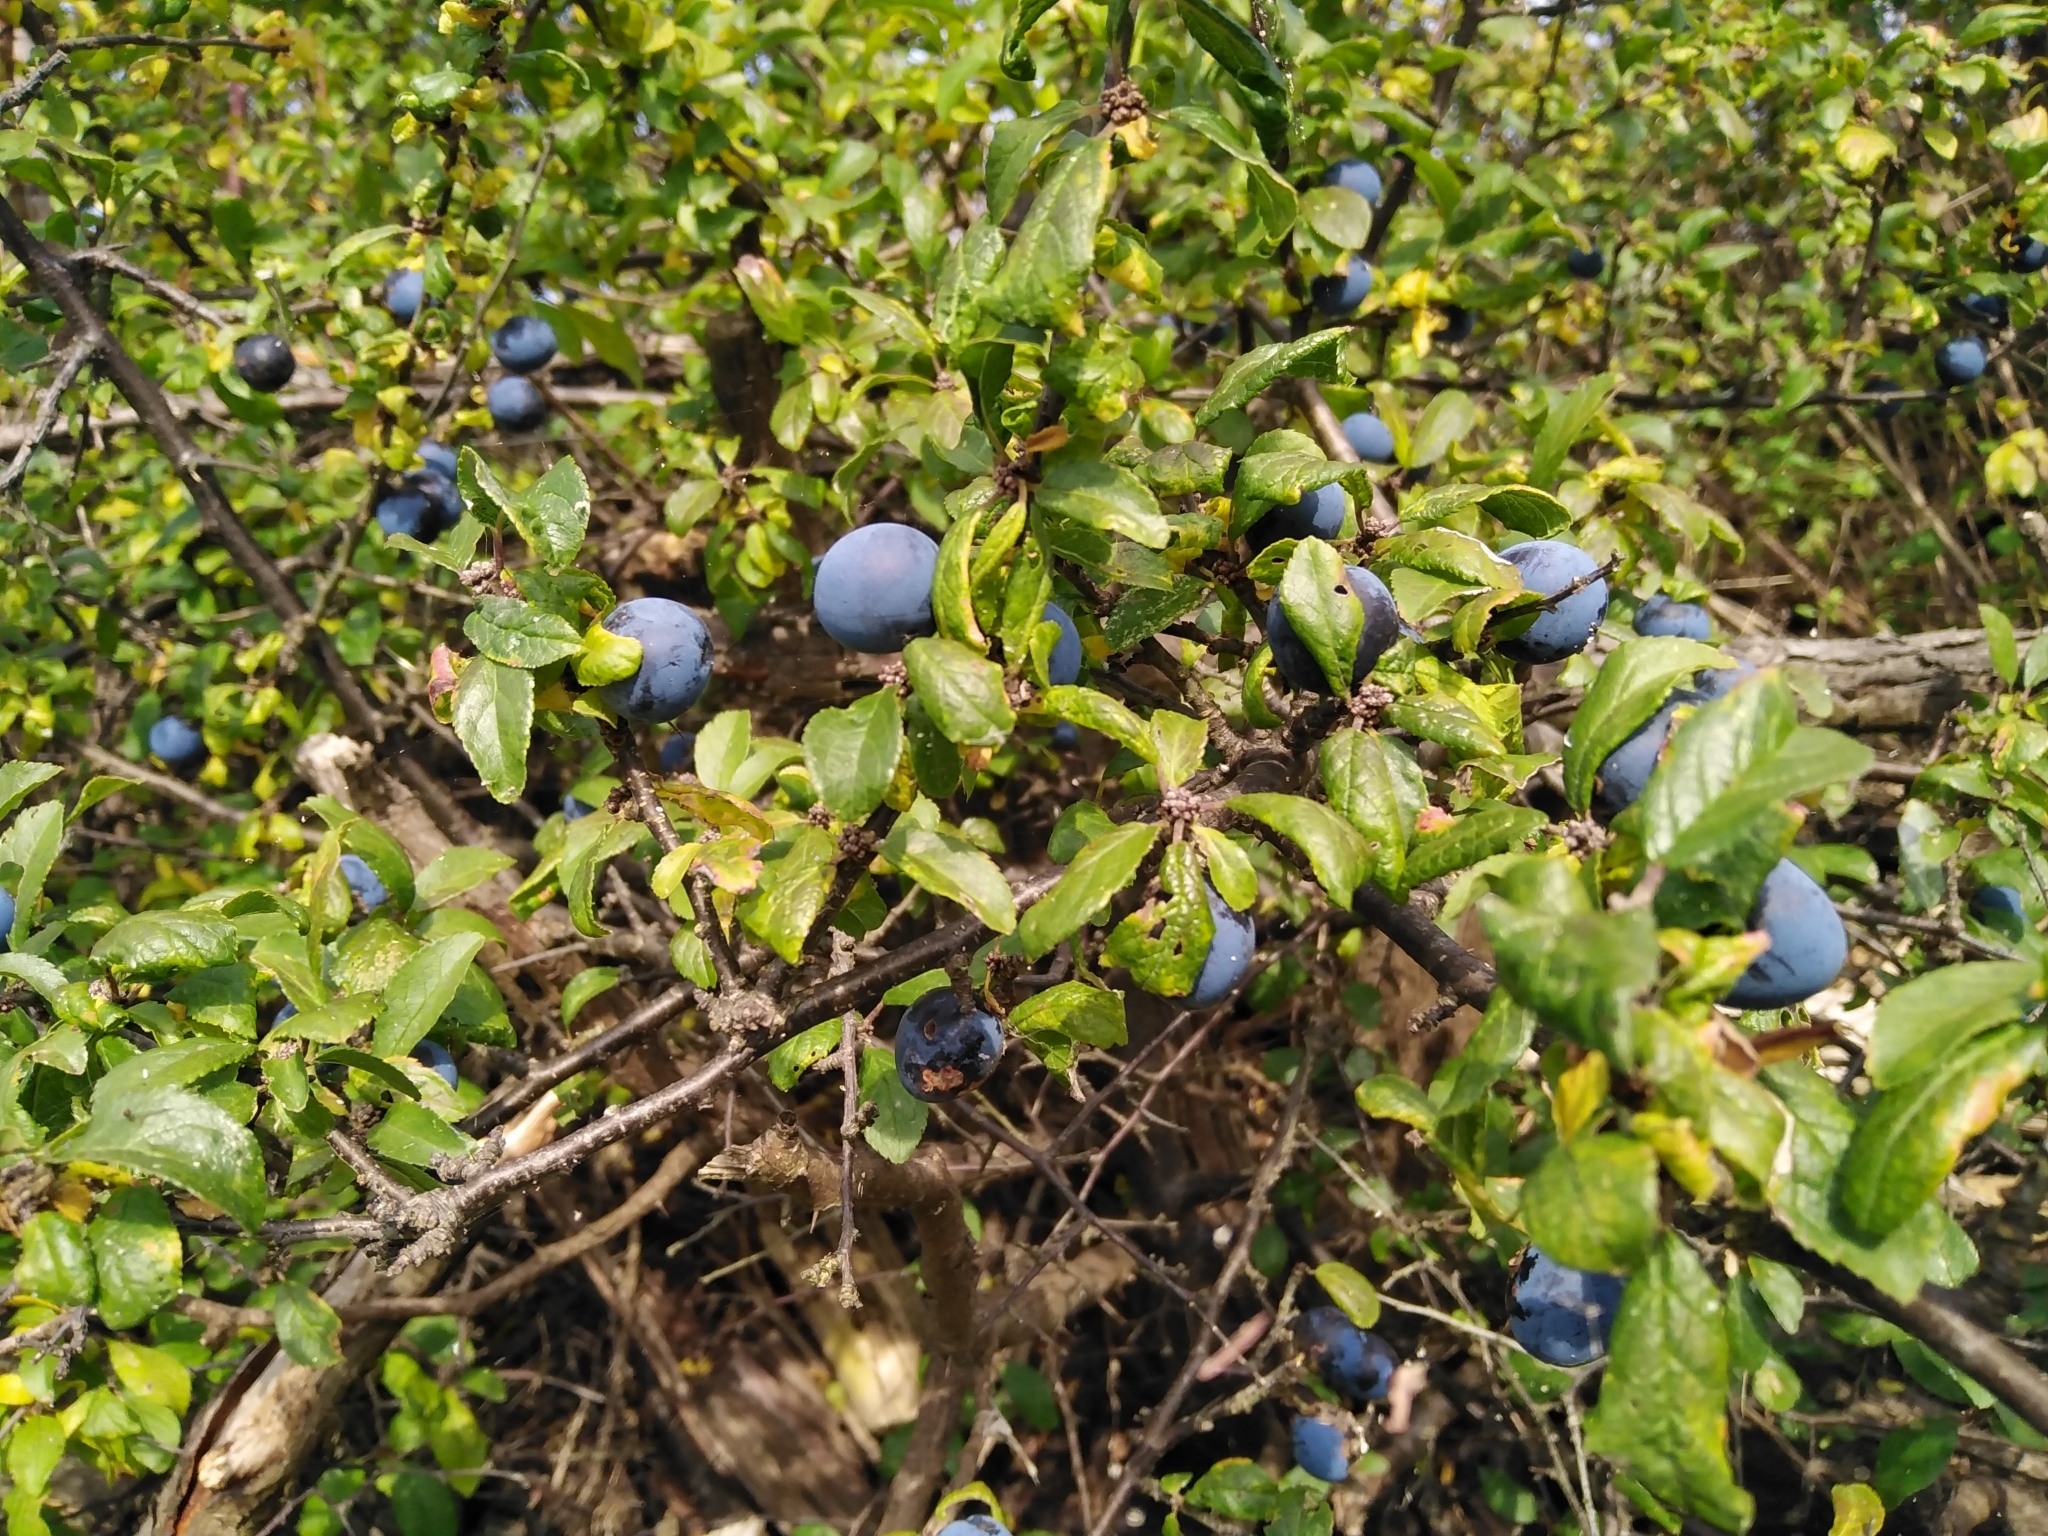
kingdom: Plantae
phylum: Tracheophyta
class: Magnoliopsida
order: Rosales
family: Rosaceae
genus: Prunus
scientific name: Prunus spinosa
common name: Blackthorn
